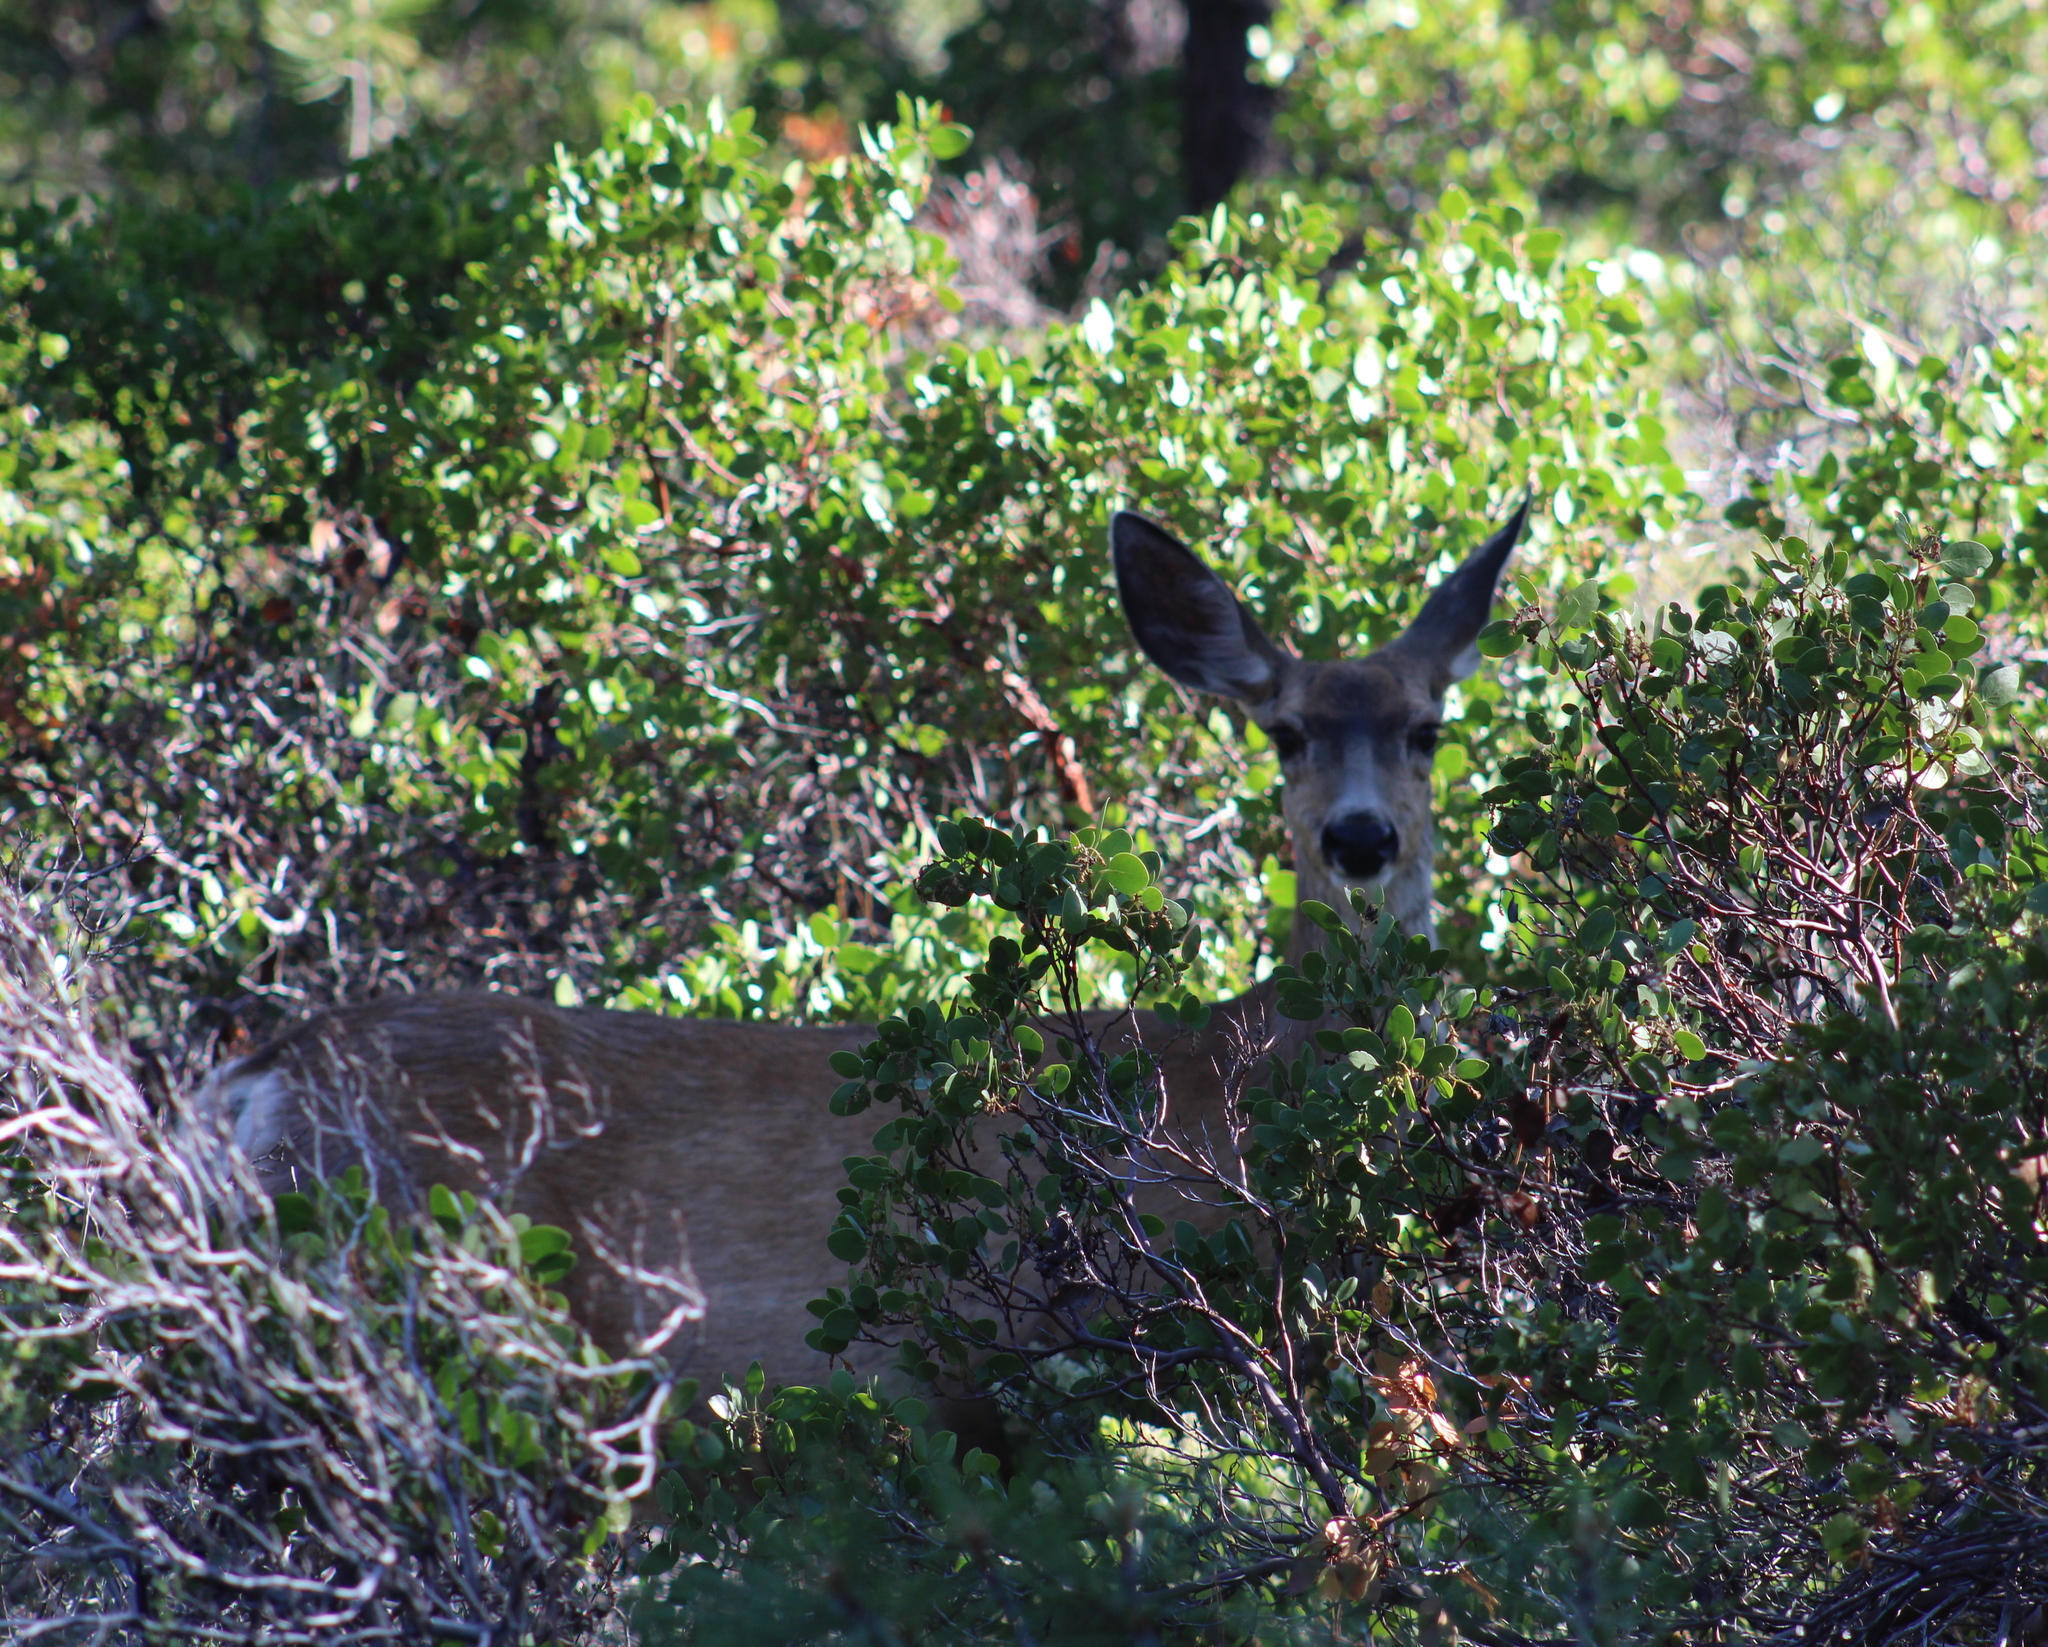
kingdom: Animalia
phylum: Chordata
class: Mammalia
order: Artiodactyla
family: Cervidae
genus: Odocoileus
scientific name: Odocoileus hemionus
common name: Mule deer
